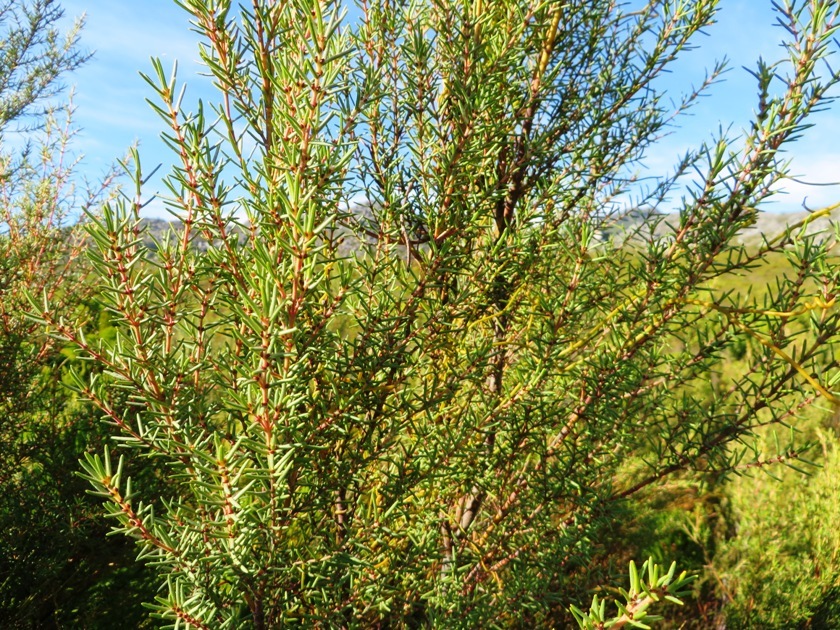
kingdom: Plantae
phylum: Tracheophyta
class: Magnoliopsida
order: Cornales
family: Grubbiaceae
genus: Grubbia
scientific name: Grubbia rosmarinifolia
